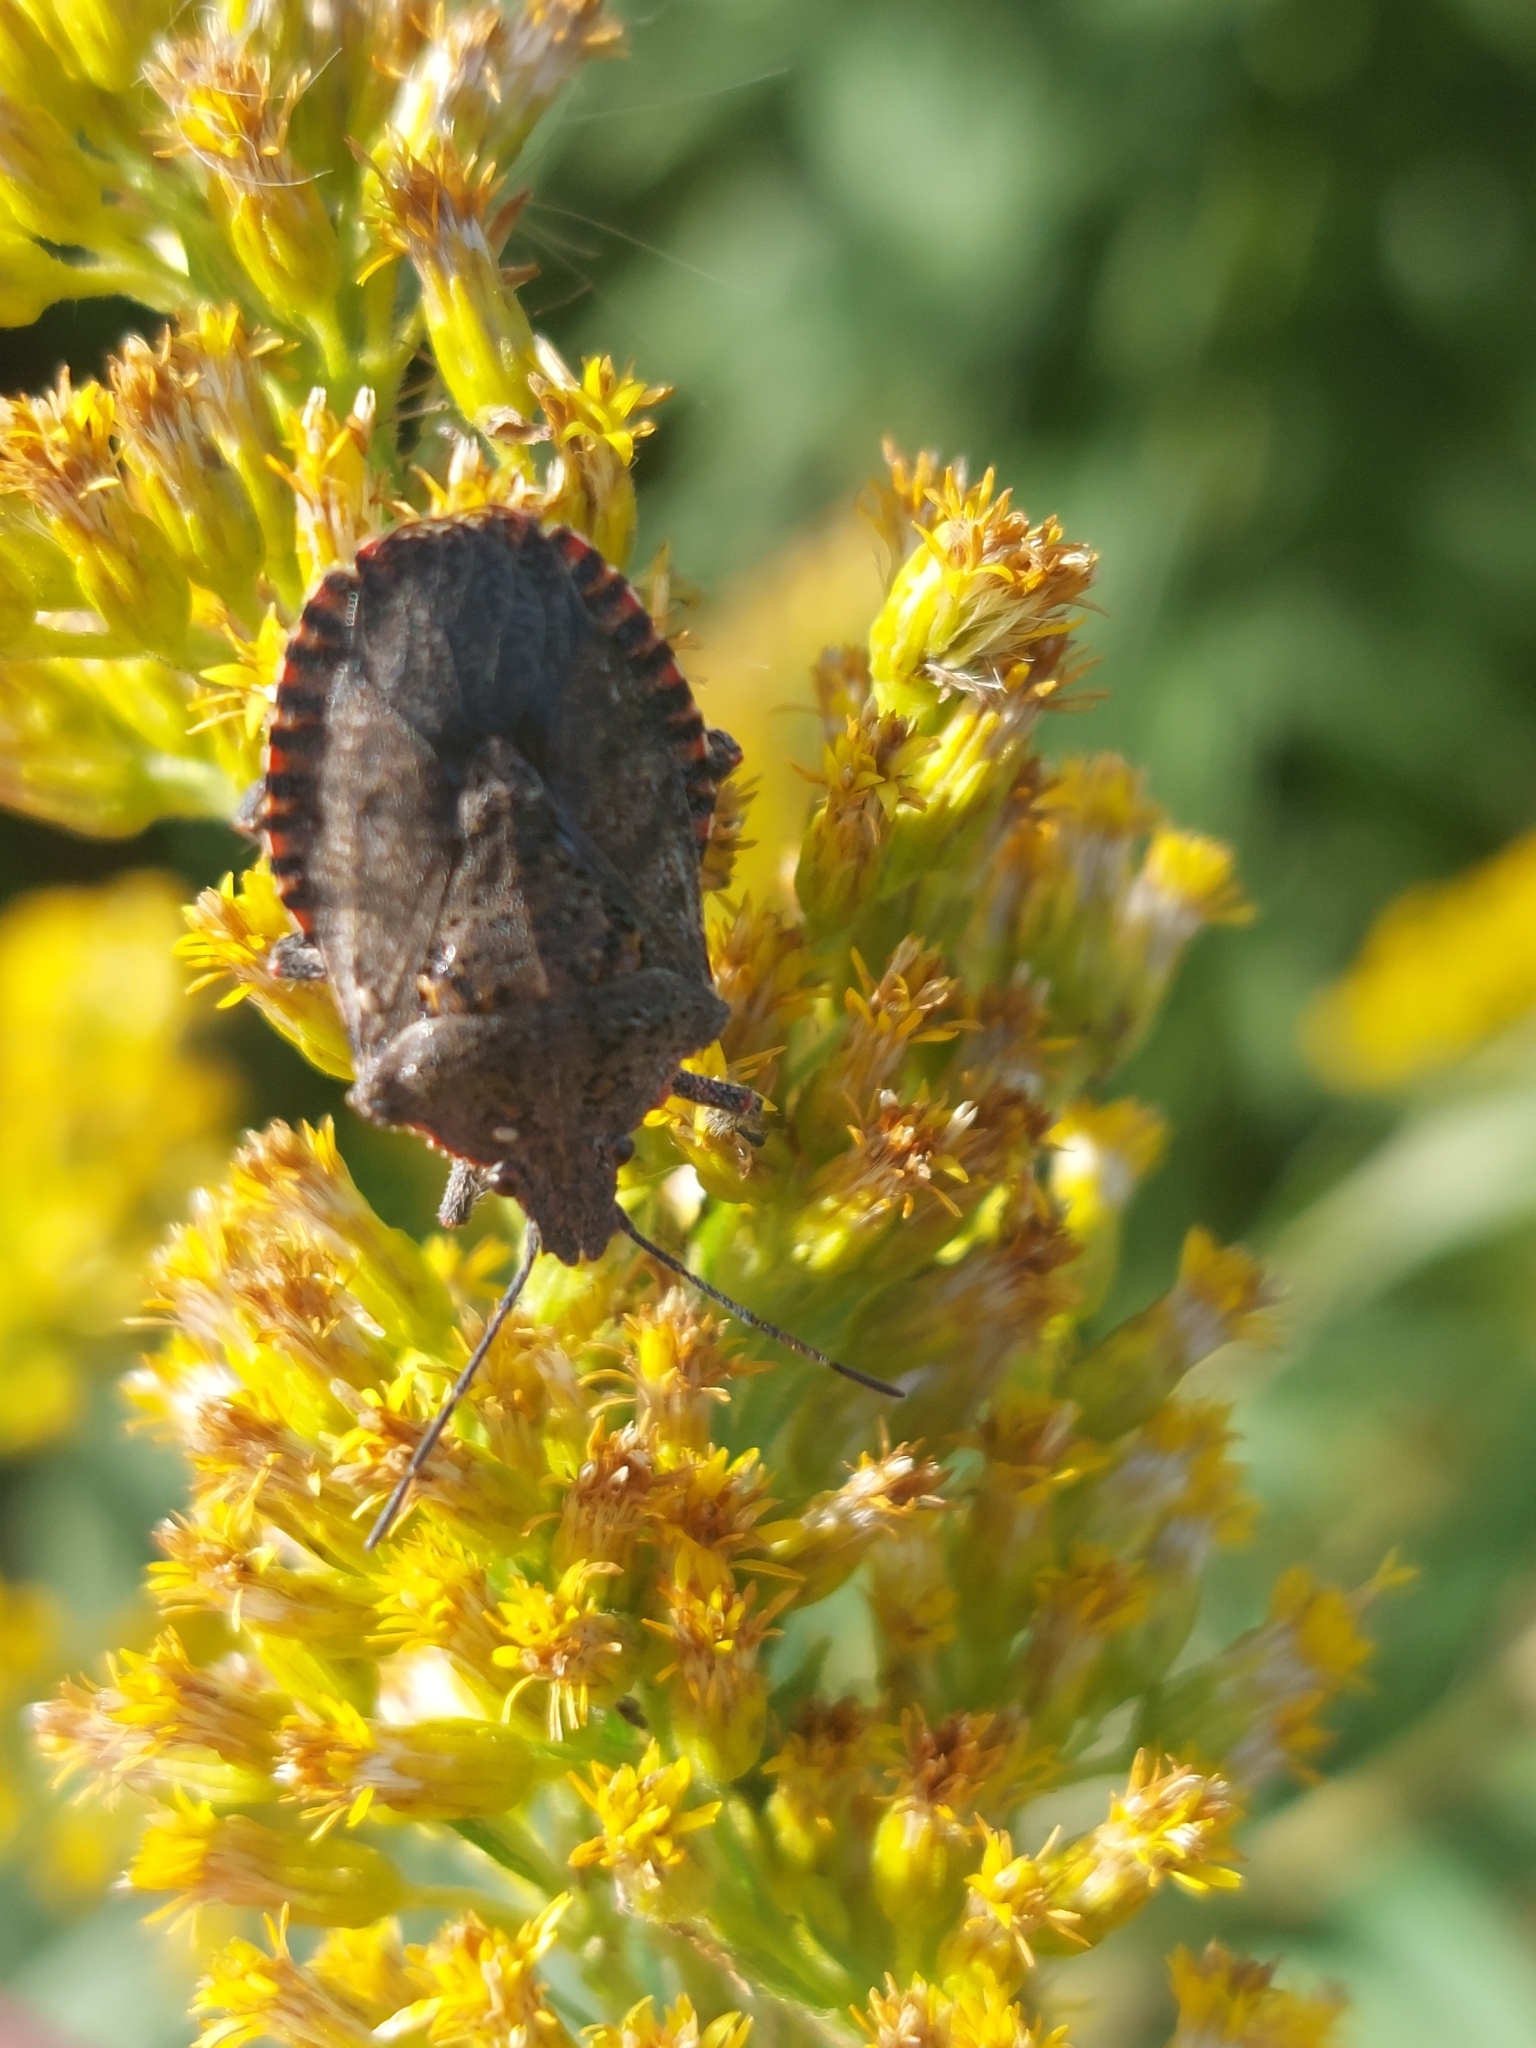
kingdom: Animalia
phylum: Arthropoda
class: Insecta
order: Hemiptera
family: Pentatomidae
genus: Brochymena
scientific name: Brochymena quadripustulata
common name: Four-humped stink bug
